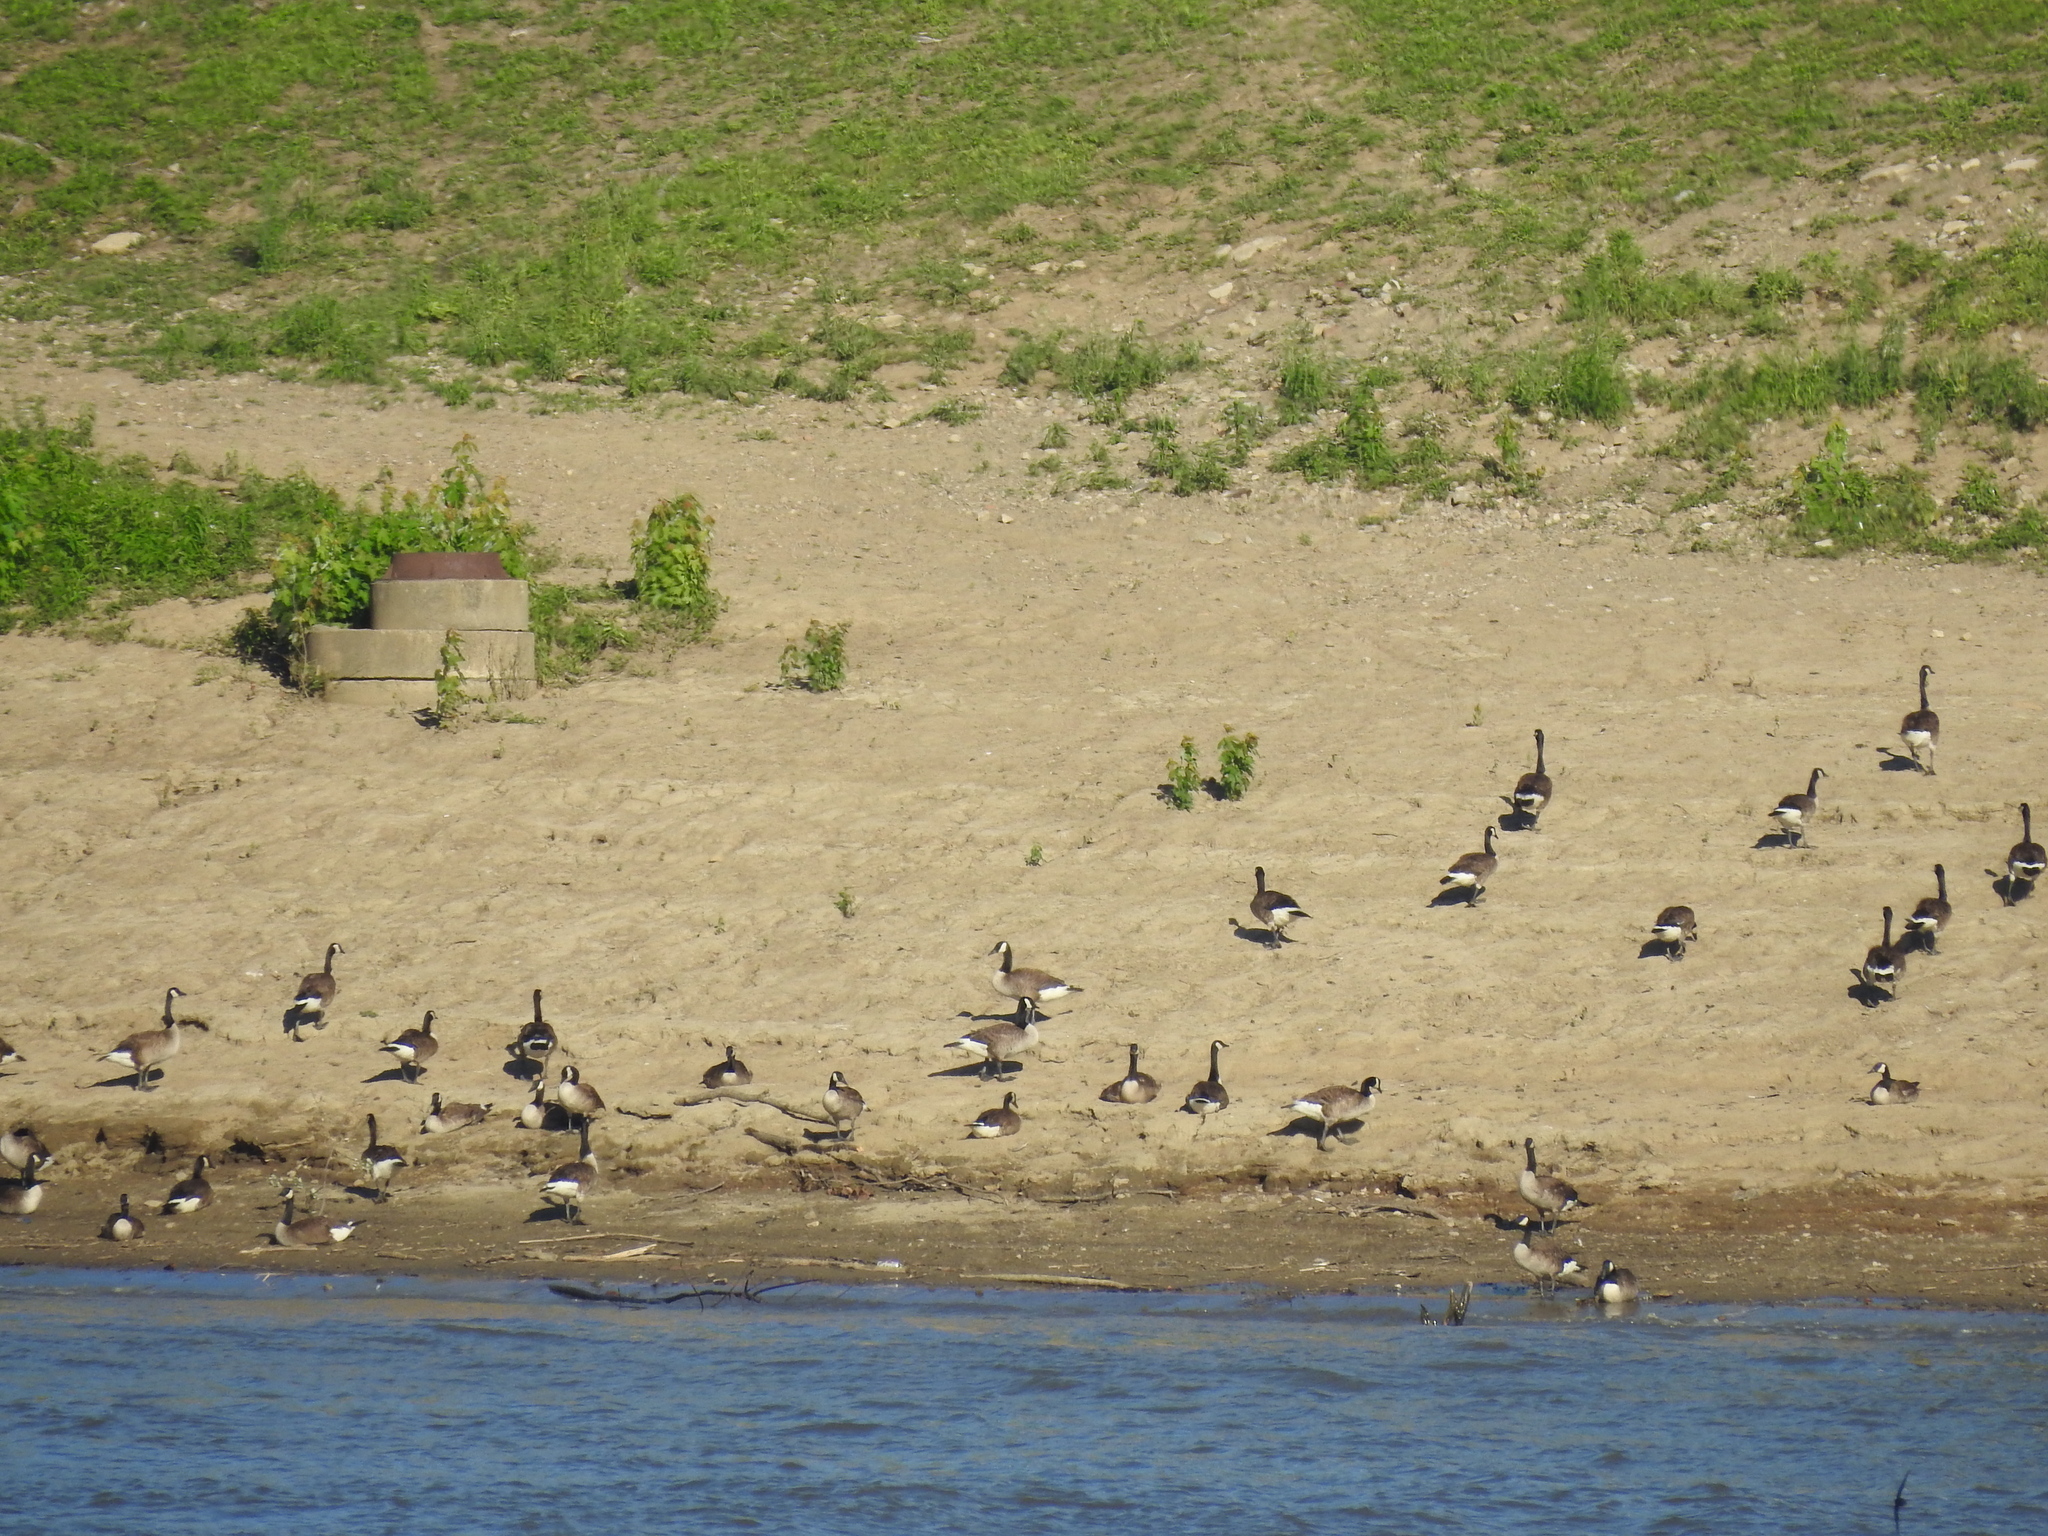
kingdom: Animalia
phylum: Chordata
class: Aves
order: Anseriformes
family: Anatidae
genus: Branta
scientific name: Branta canadensis
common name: Canada goose
